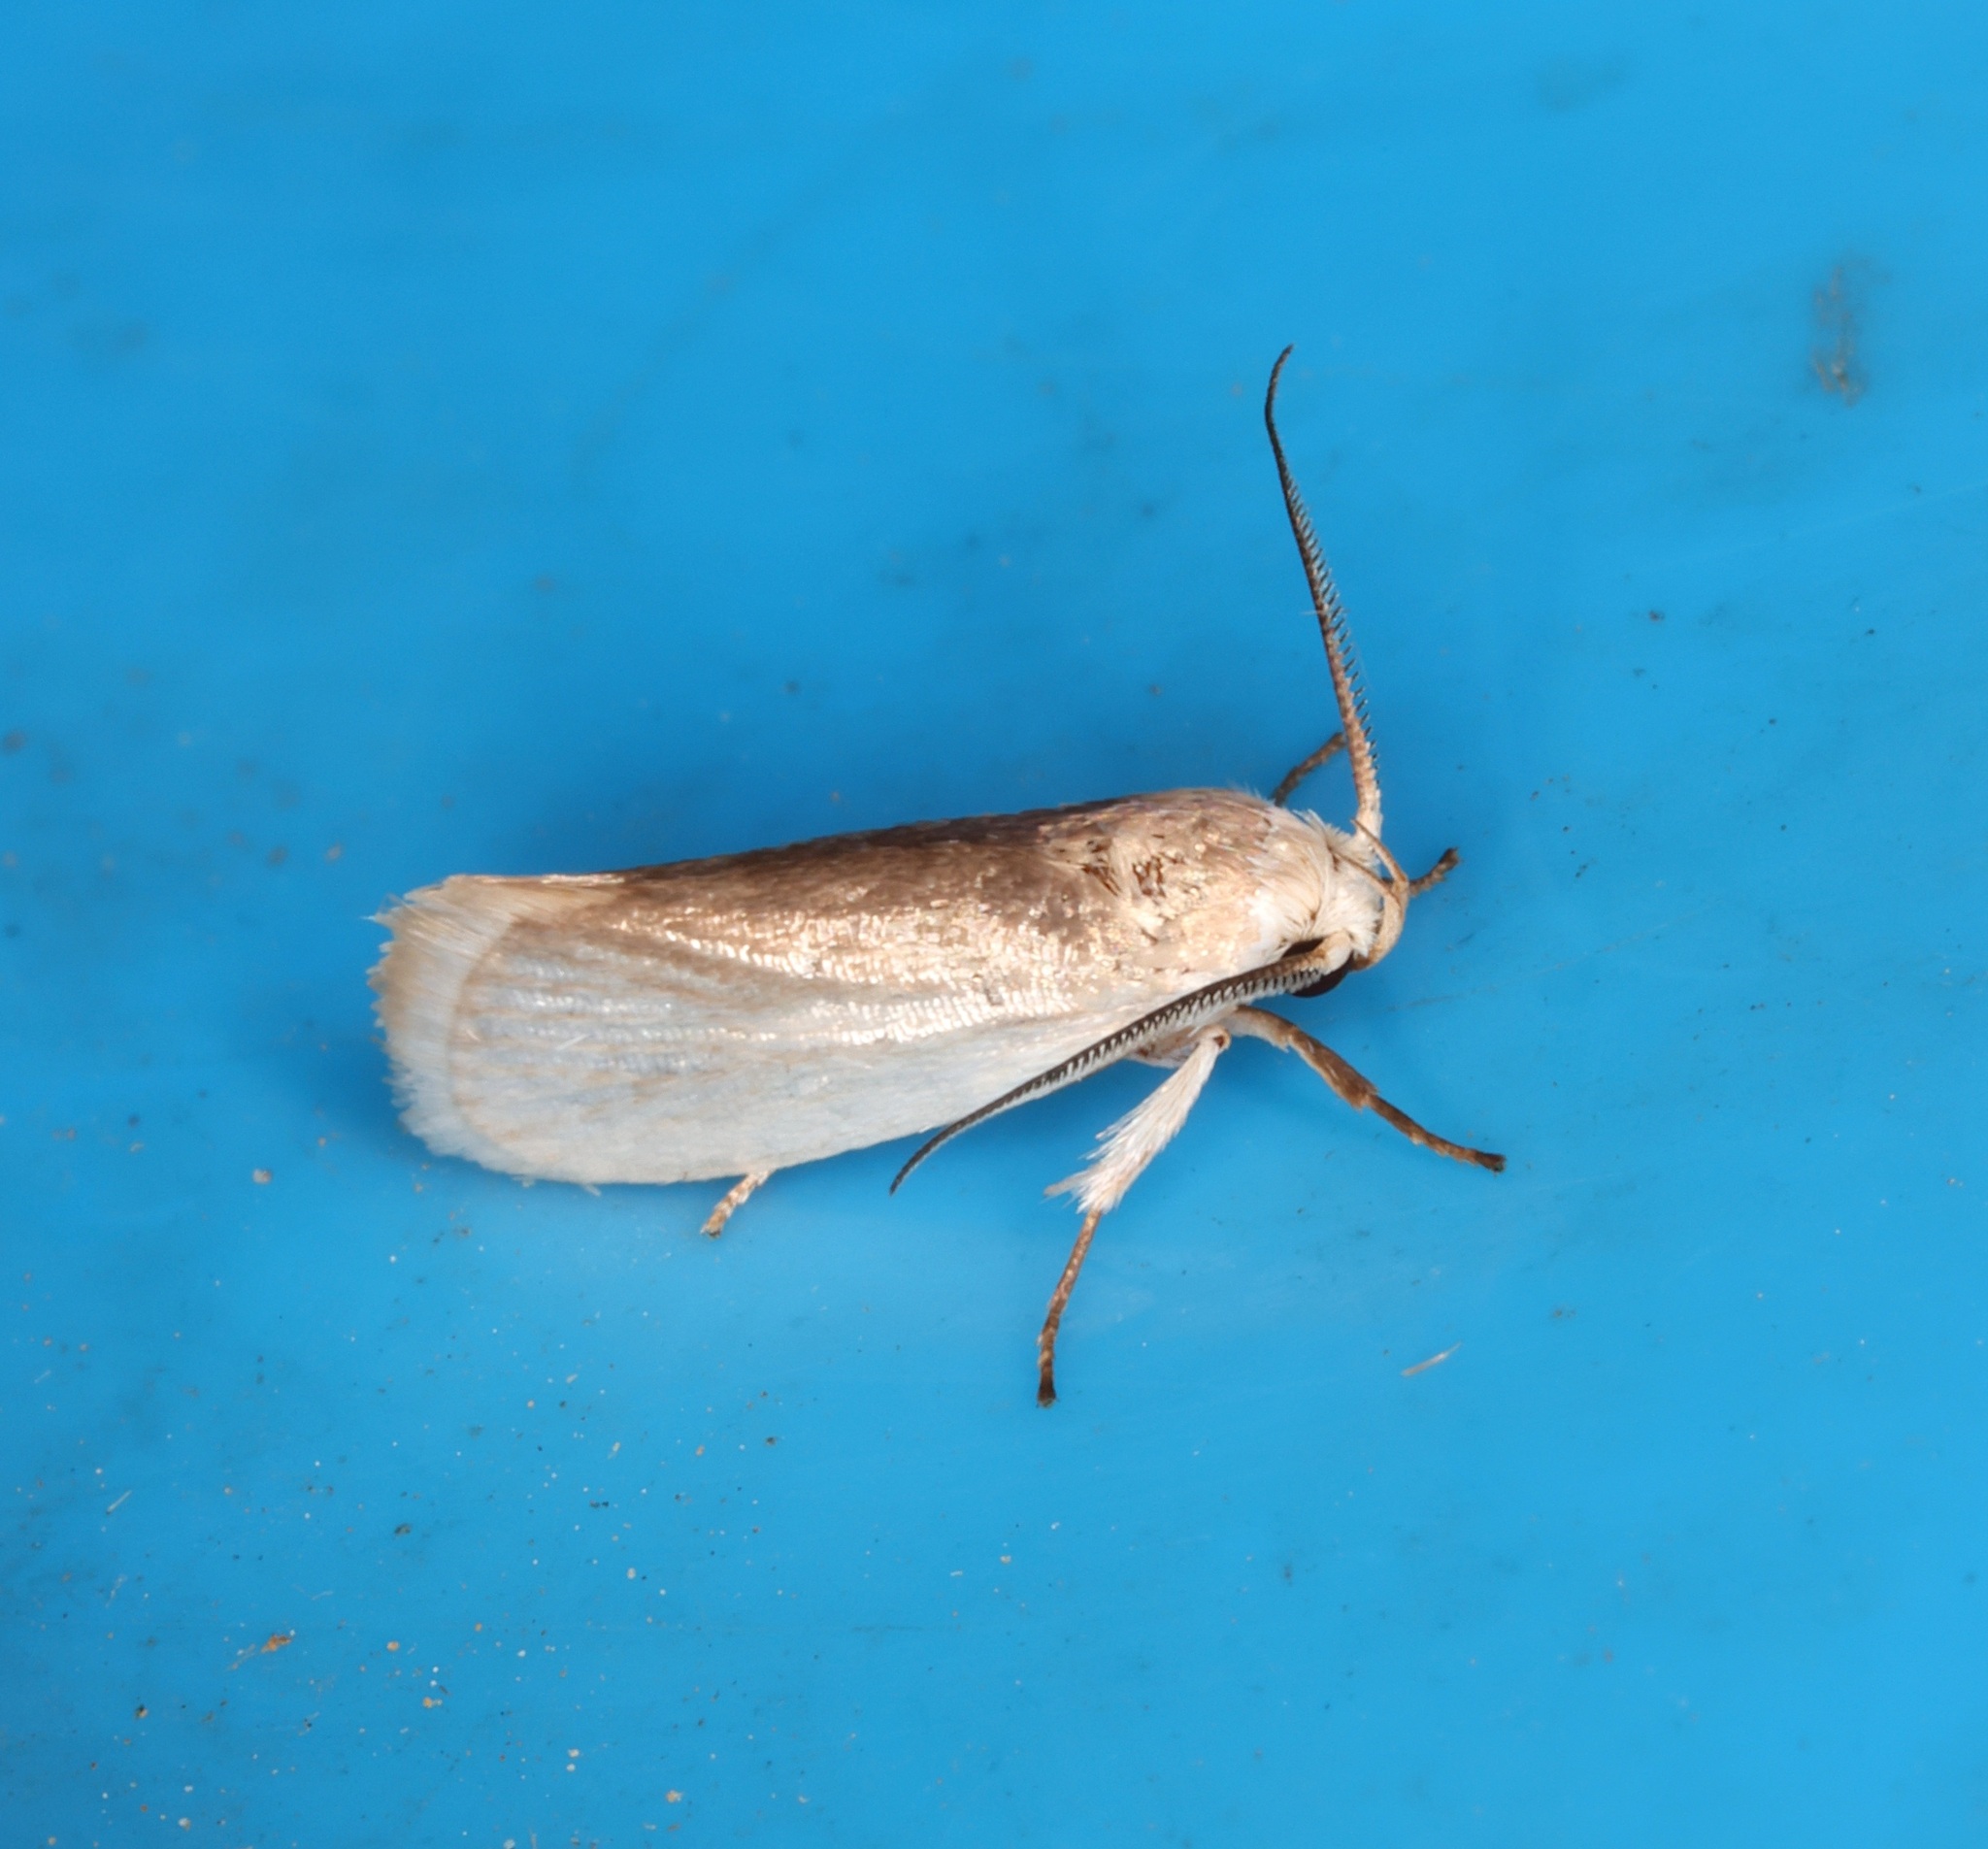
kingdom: Animalia
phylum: Arthropoda
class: Insecta
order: Lepidoptera
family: Xyloryctidae
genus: Athrypsiastis
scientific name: Athrypsiastis salva
